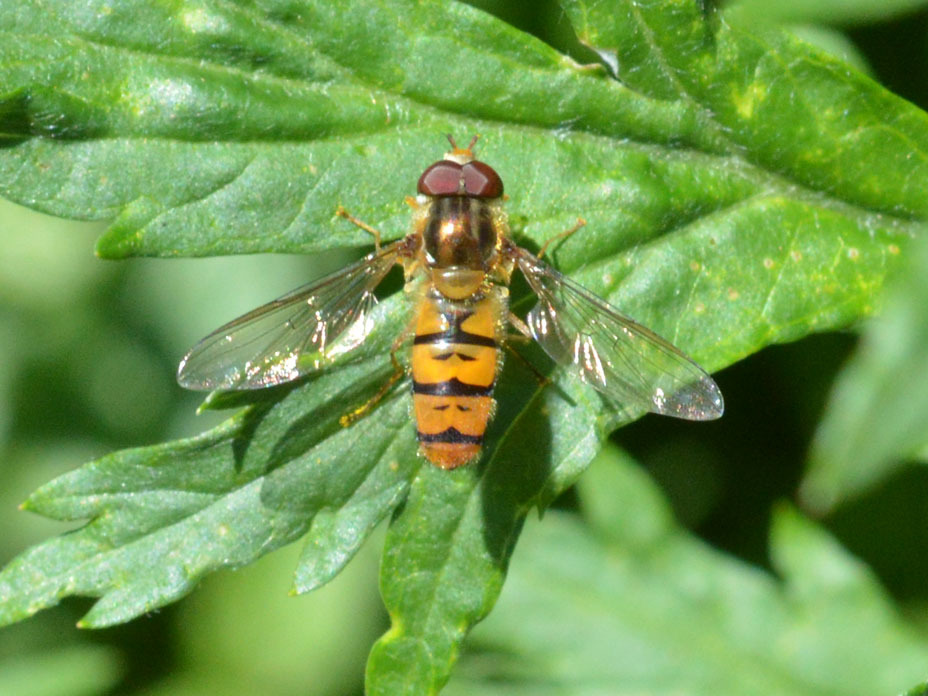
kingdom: Animalia
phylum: Arthropoda
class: Insecta
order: Diptera
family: Syrphidae
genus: Episyrphus
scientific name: Episyrphus balteatus
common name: Marmalade hoverfly
